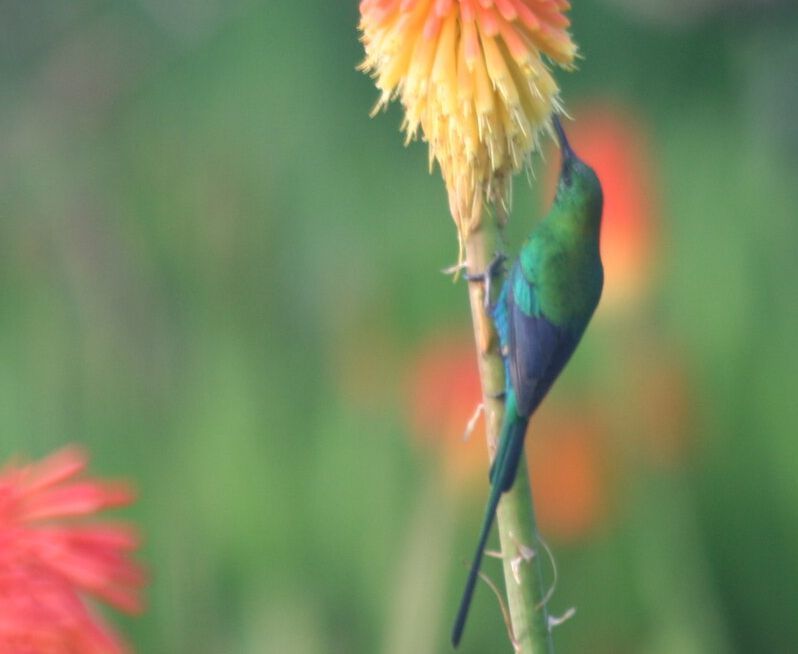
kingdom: Animalia
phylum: Chordata
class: Aves
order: Passeriformes
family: Nectariniidae
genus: Nectarinia
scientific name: Nectarinia famosa
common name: Malachite sunbird
